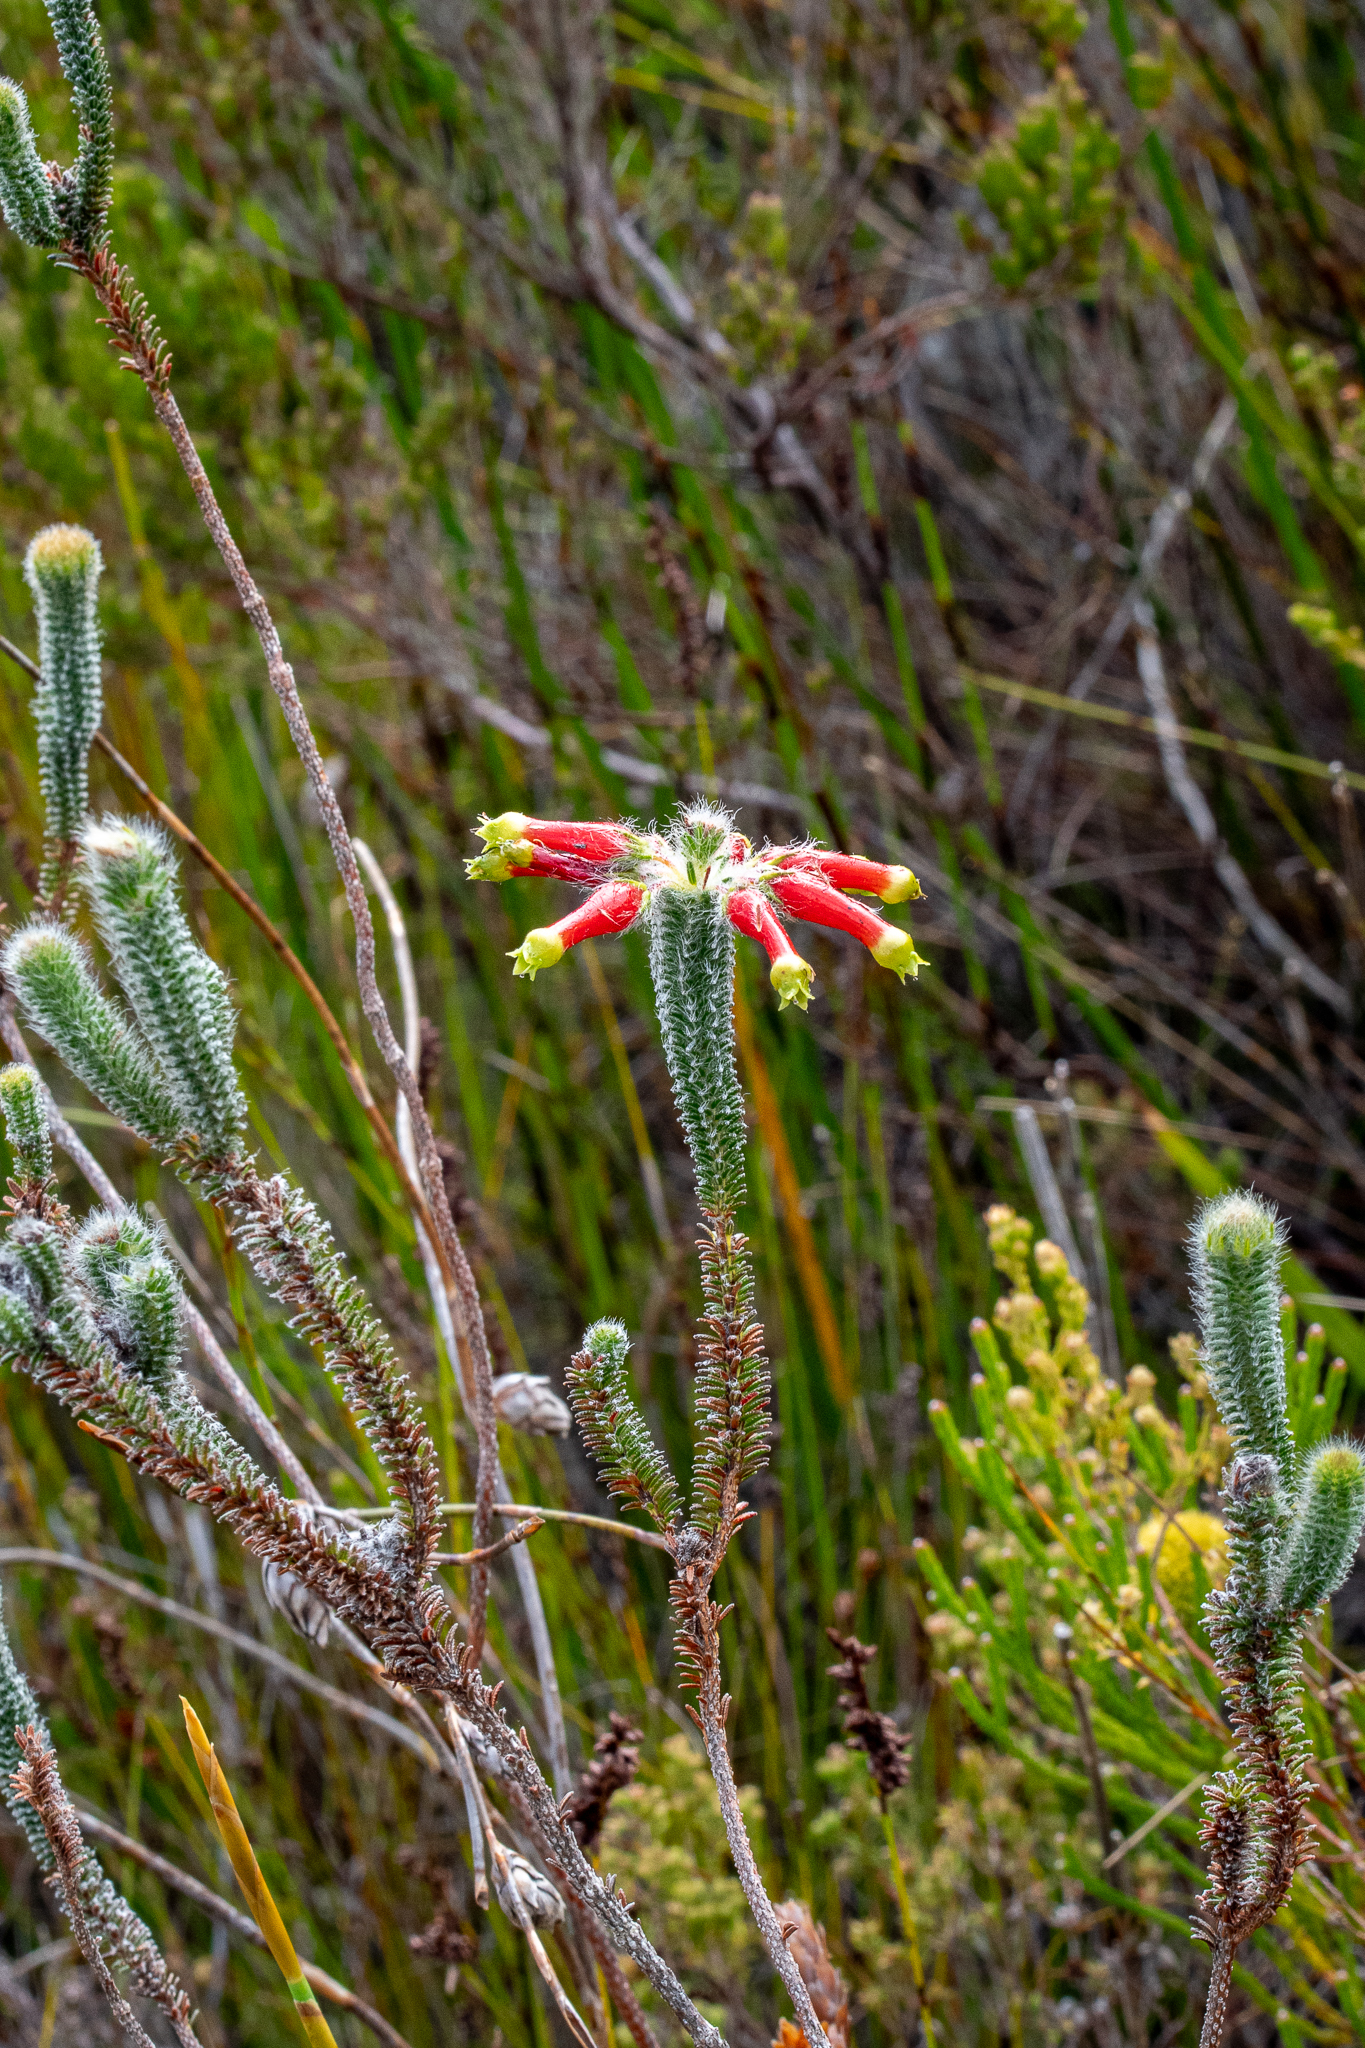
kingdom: Plantae
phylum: Tracheophyta
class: Magnoliopsida
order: Ericales
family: Ericaceae
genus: Erica
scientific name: Erica massonii
